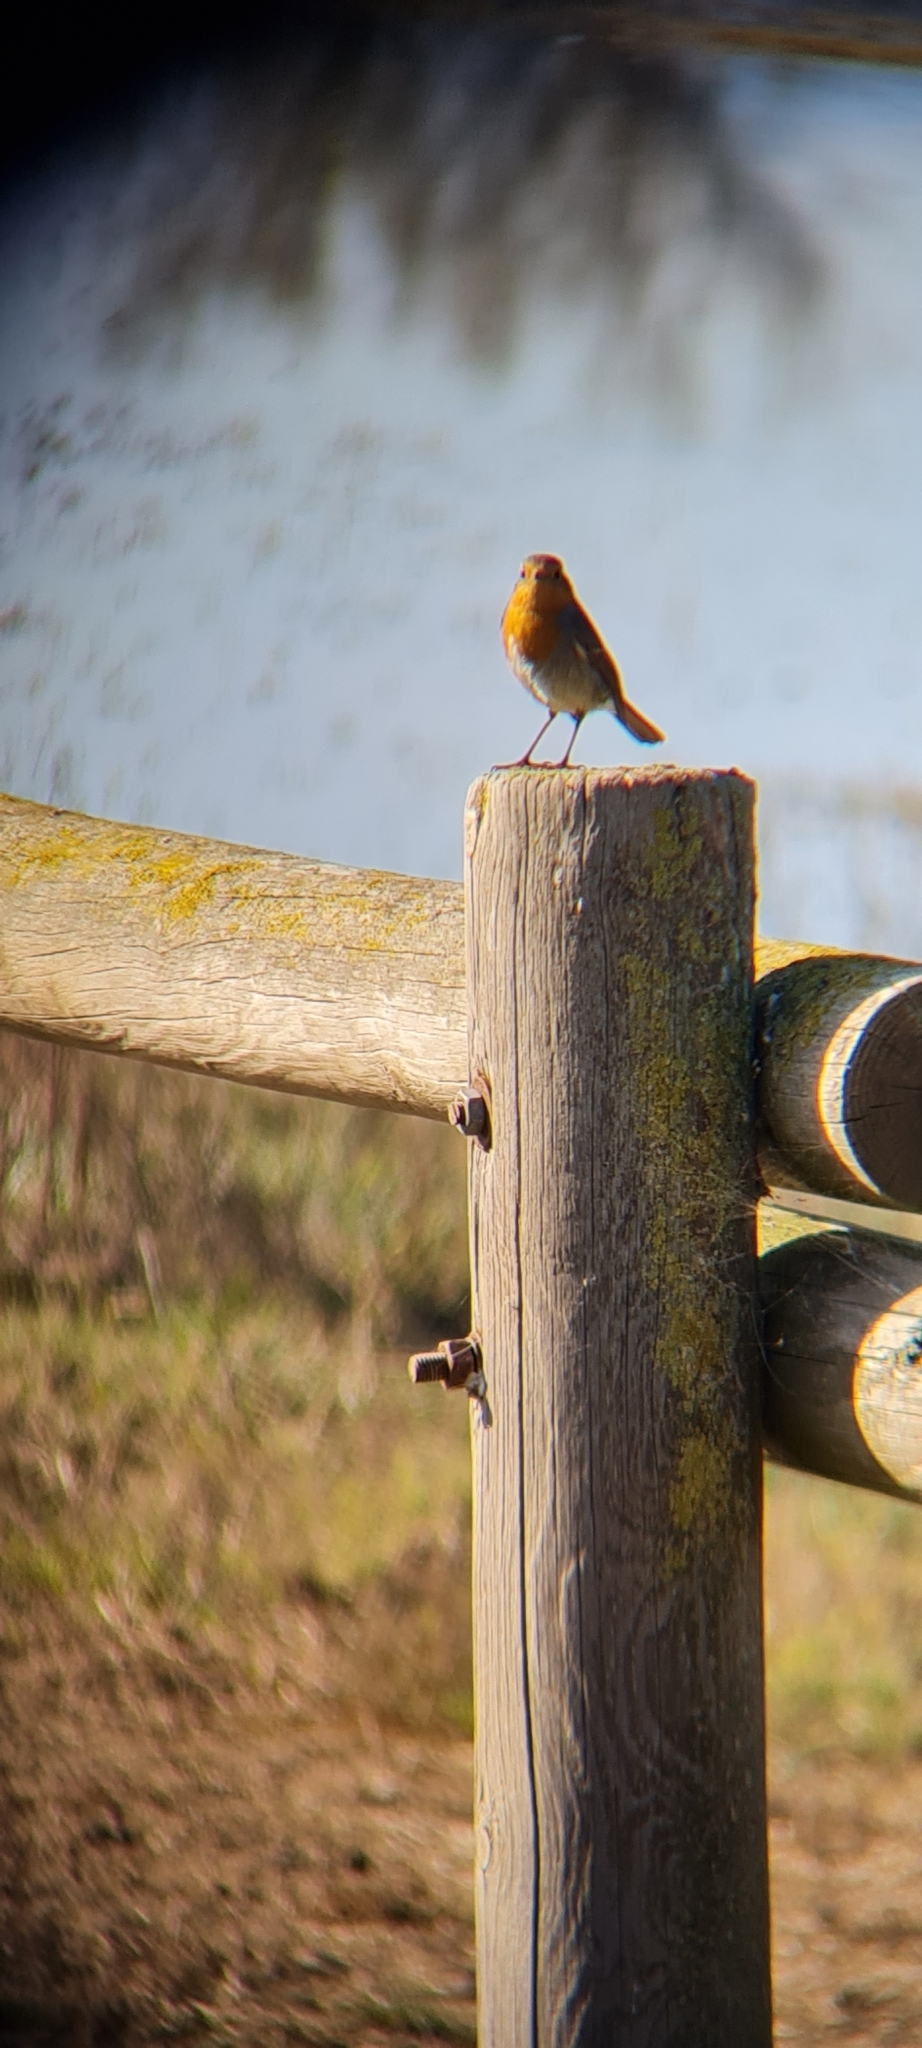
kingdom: Animalia
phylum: Chordata
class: Aves
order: Passeriformes
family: Muscicapidae
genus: Erithacus
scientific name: Erithacus rubecula
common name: European robin
